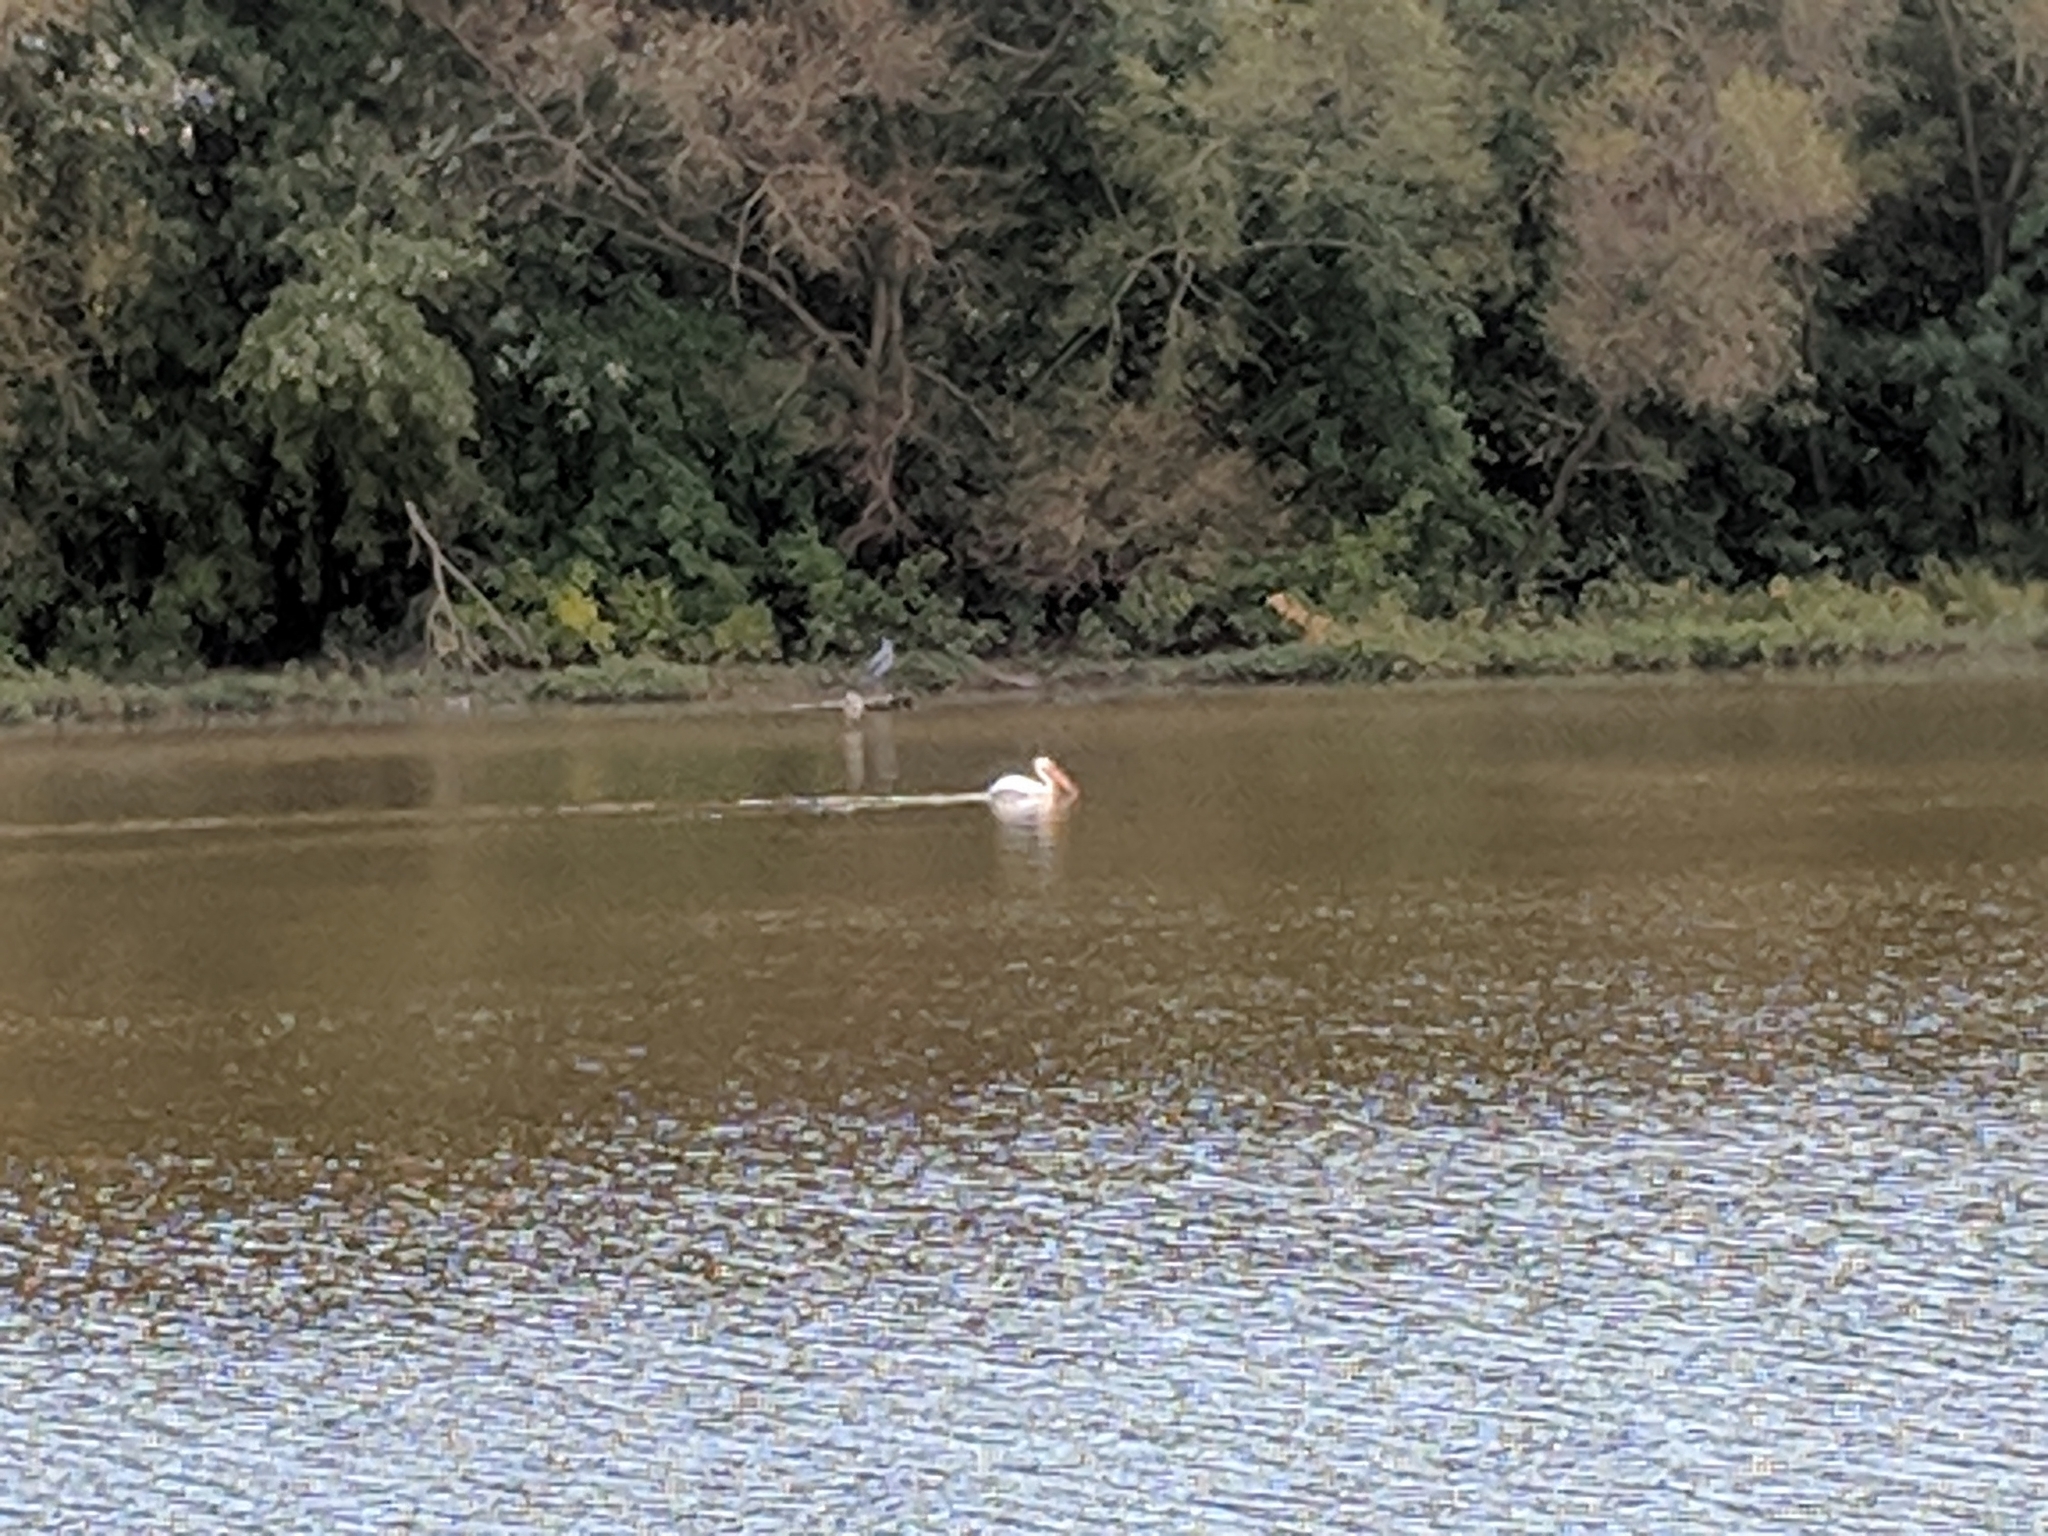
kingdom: Animalia
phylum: Chordata
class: Aves
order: Pelecaniformes
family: Pelecanidae
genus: Pelecanus
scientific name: Pelecanus erythrorhynchos
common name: American white pelican
